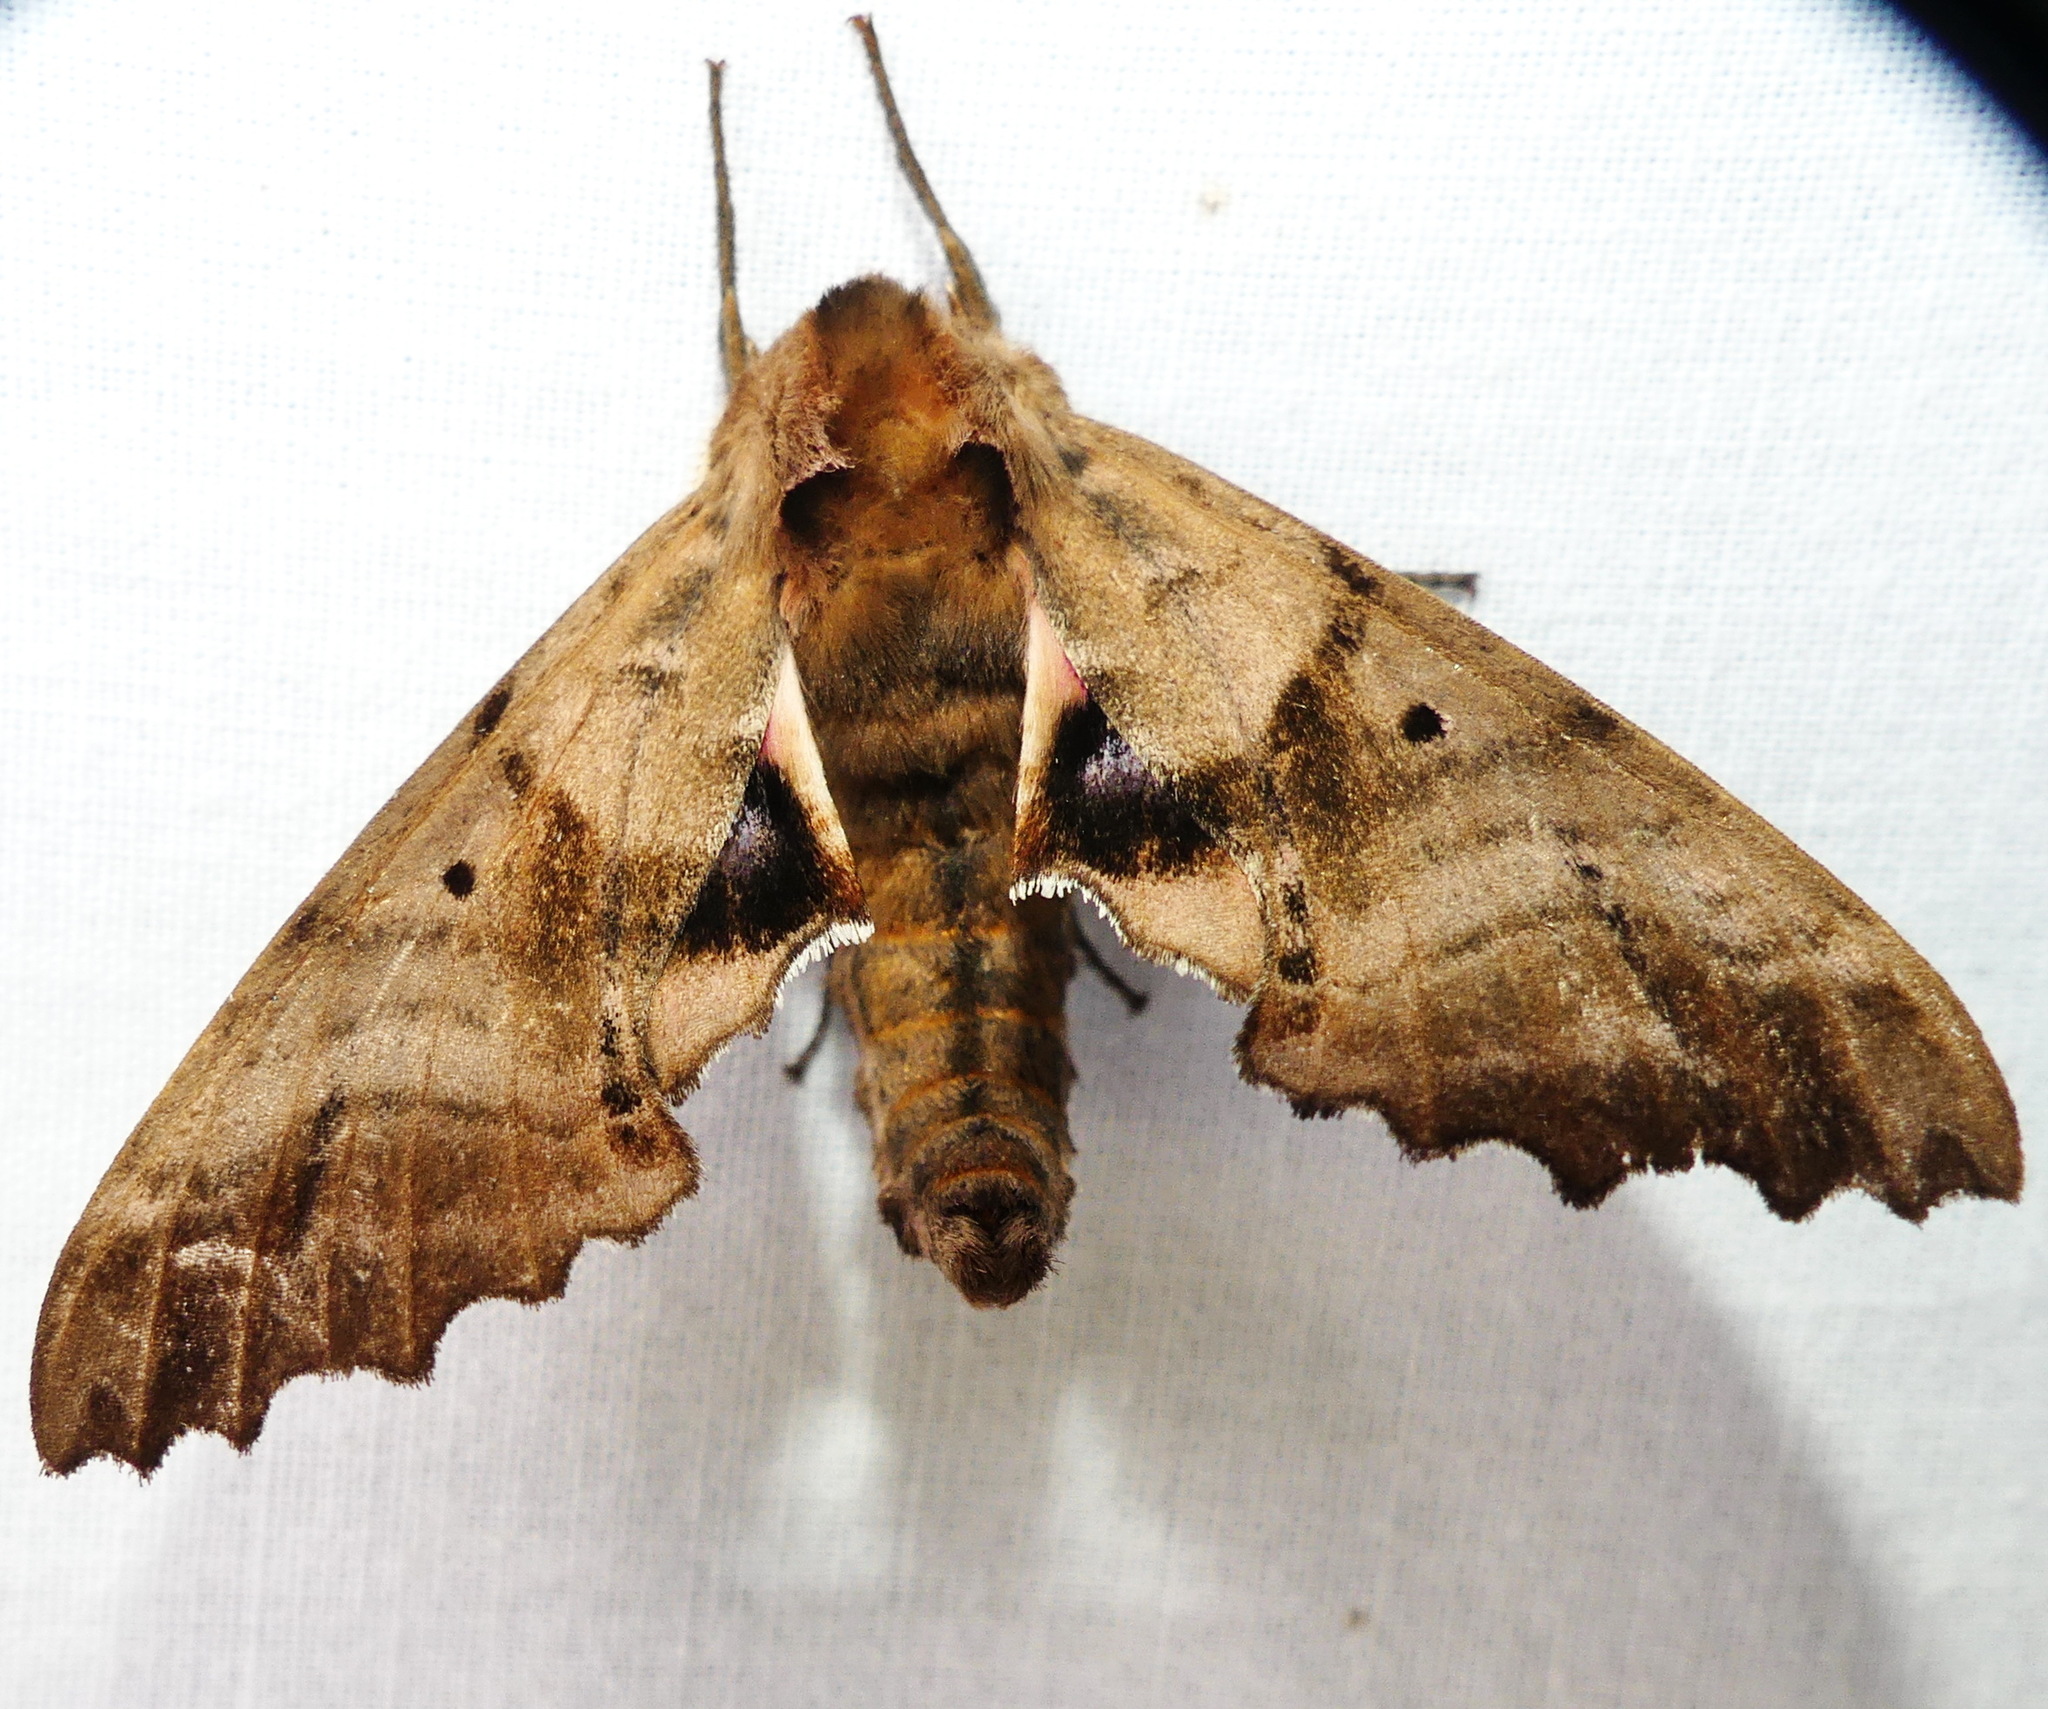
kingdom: Animalia
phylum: Arthropoda
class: Insecta
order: Lepidoptera
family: Sphingidae
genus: Paonias
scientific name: Paonias excaecata
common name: Blind-eyed sphinx
